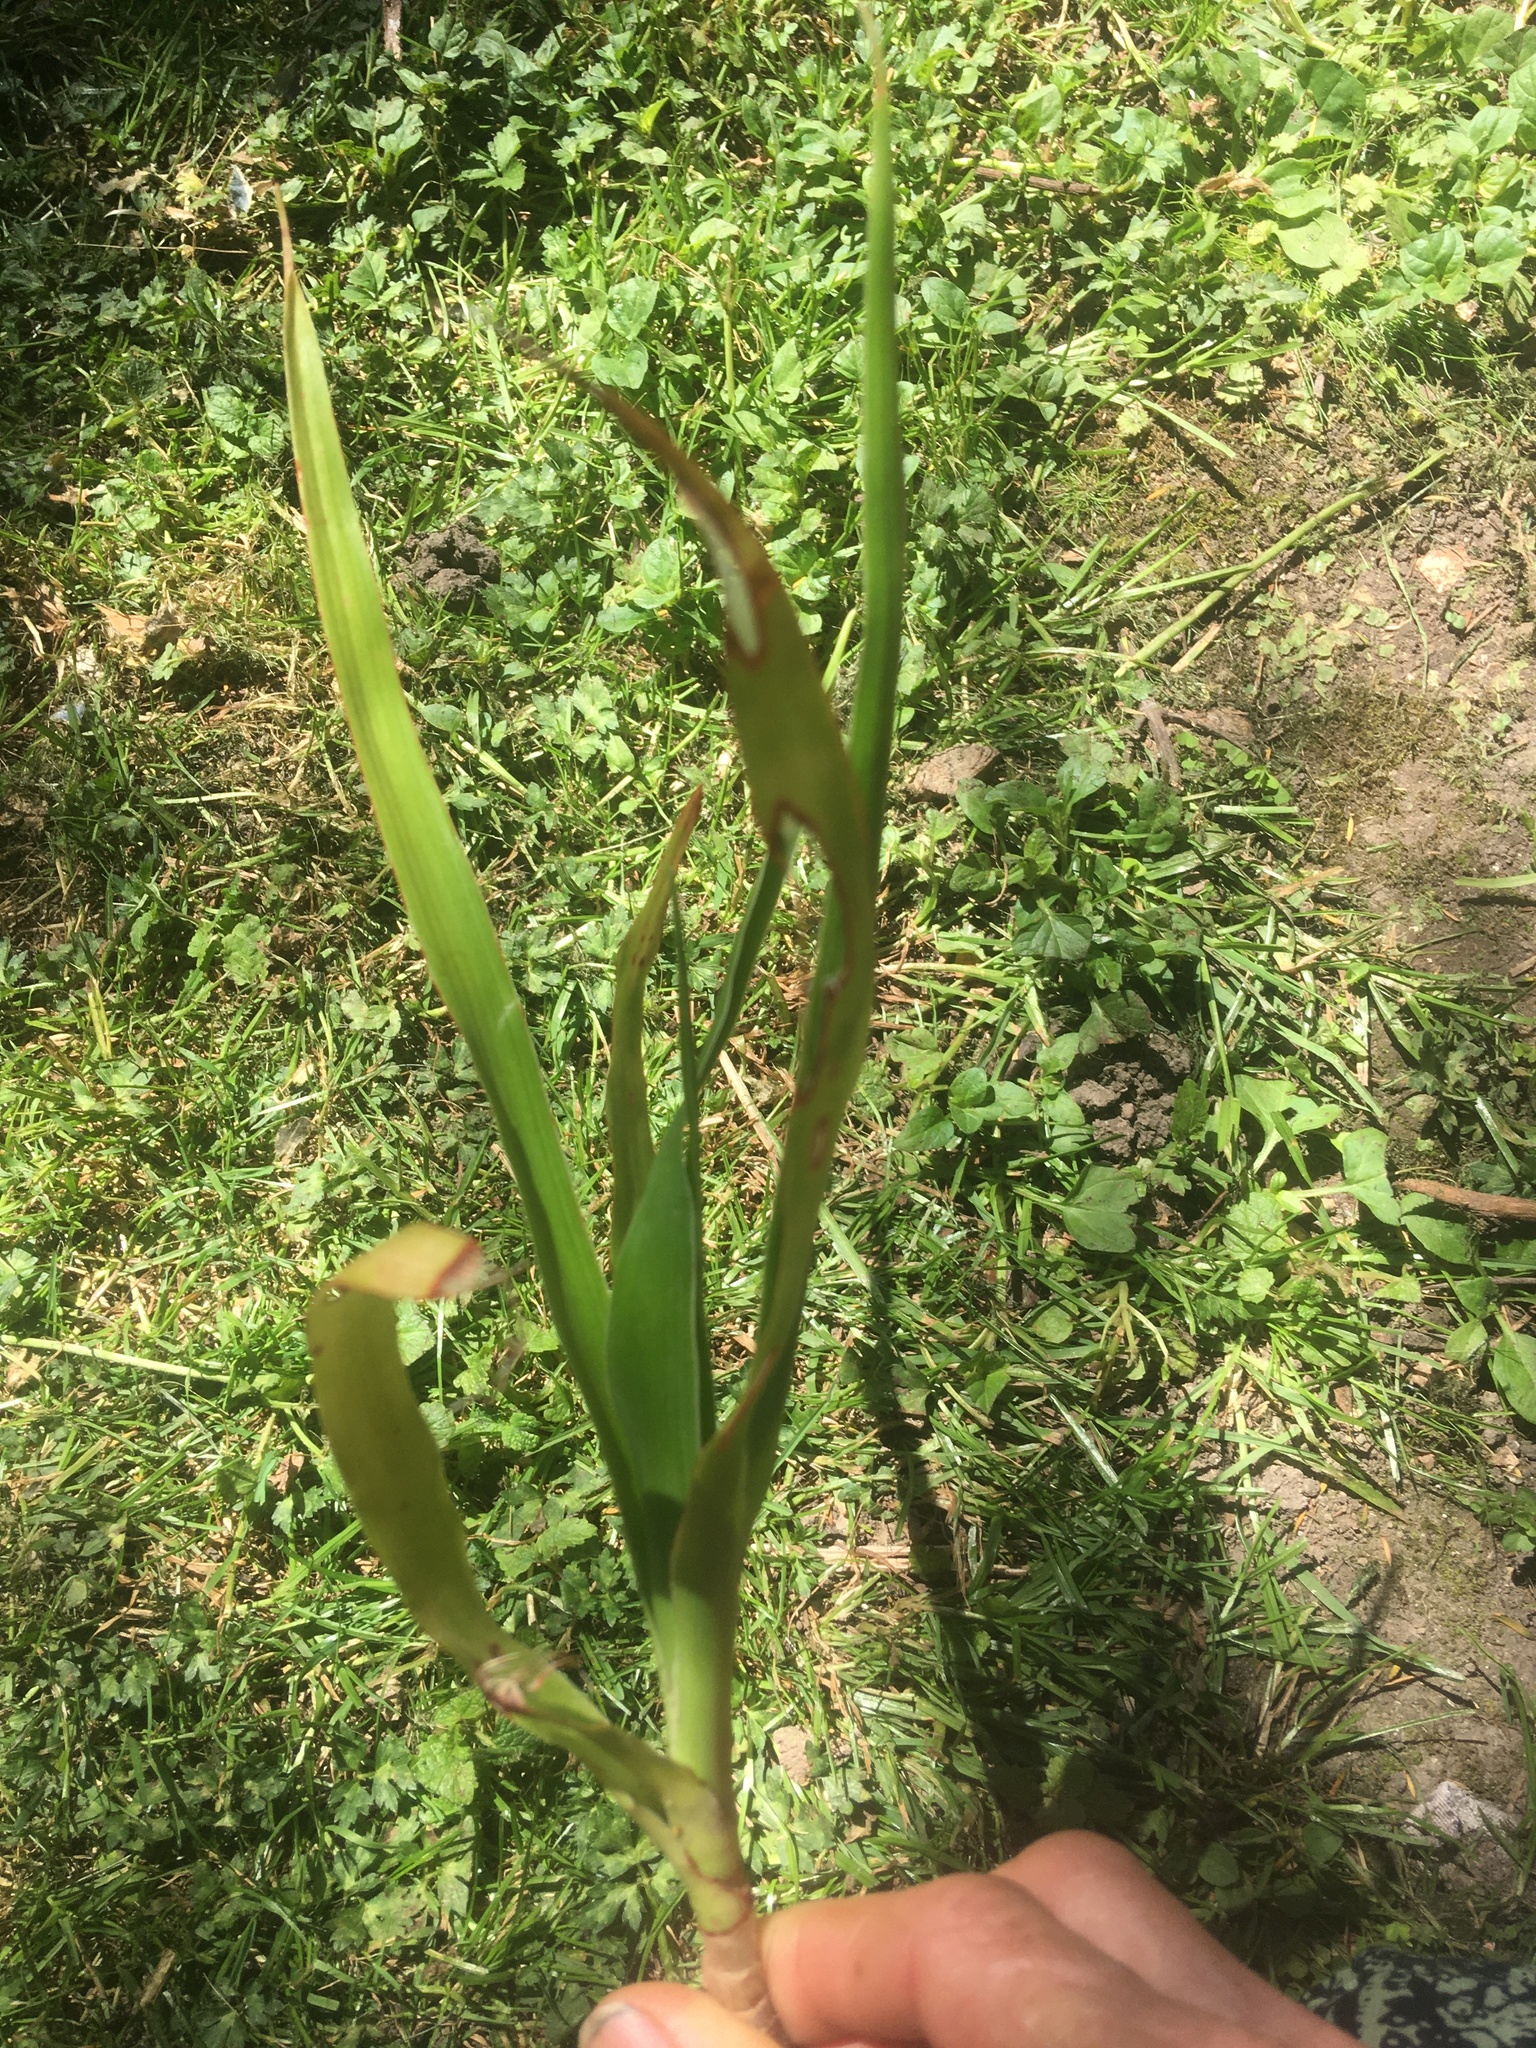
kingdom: Plantae
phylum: Tracheophyta
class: Liliopsida
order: Asparagales
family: Asparagaceae
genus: Dracaena
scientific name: Dracaena draco
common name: Canary island dragon tree
